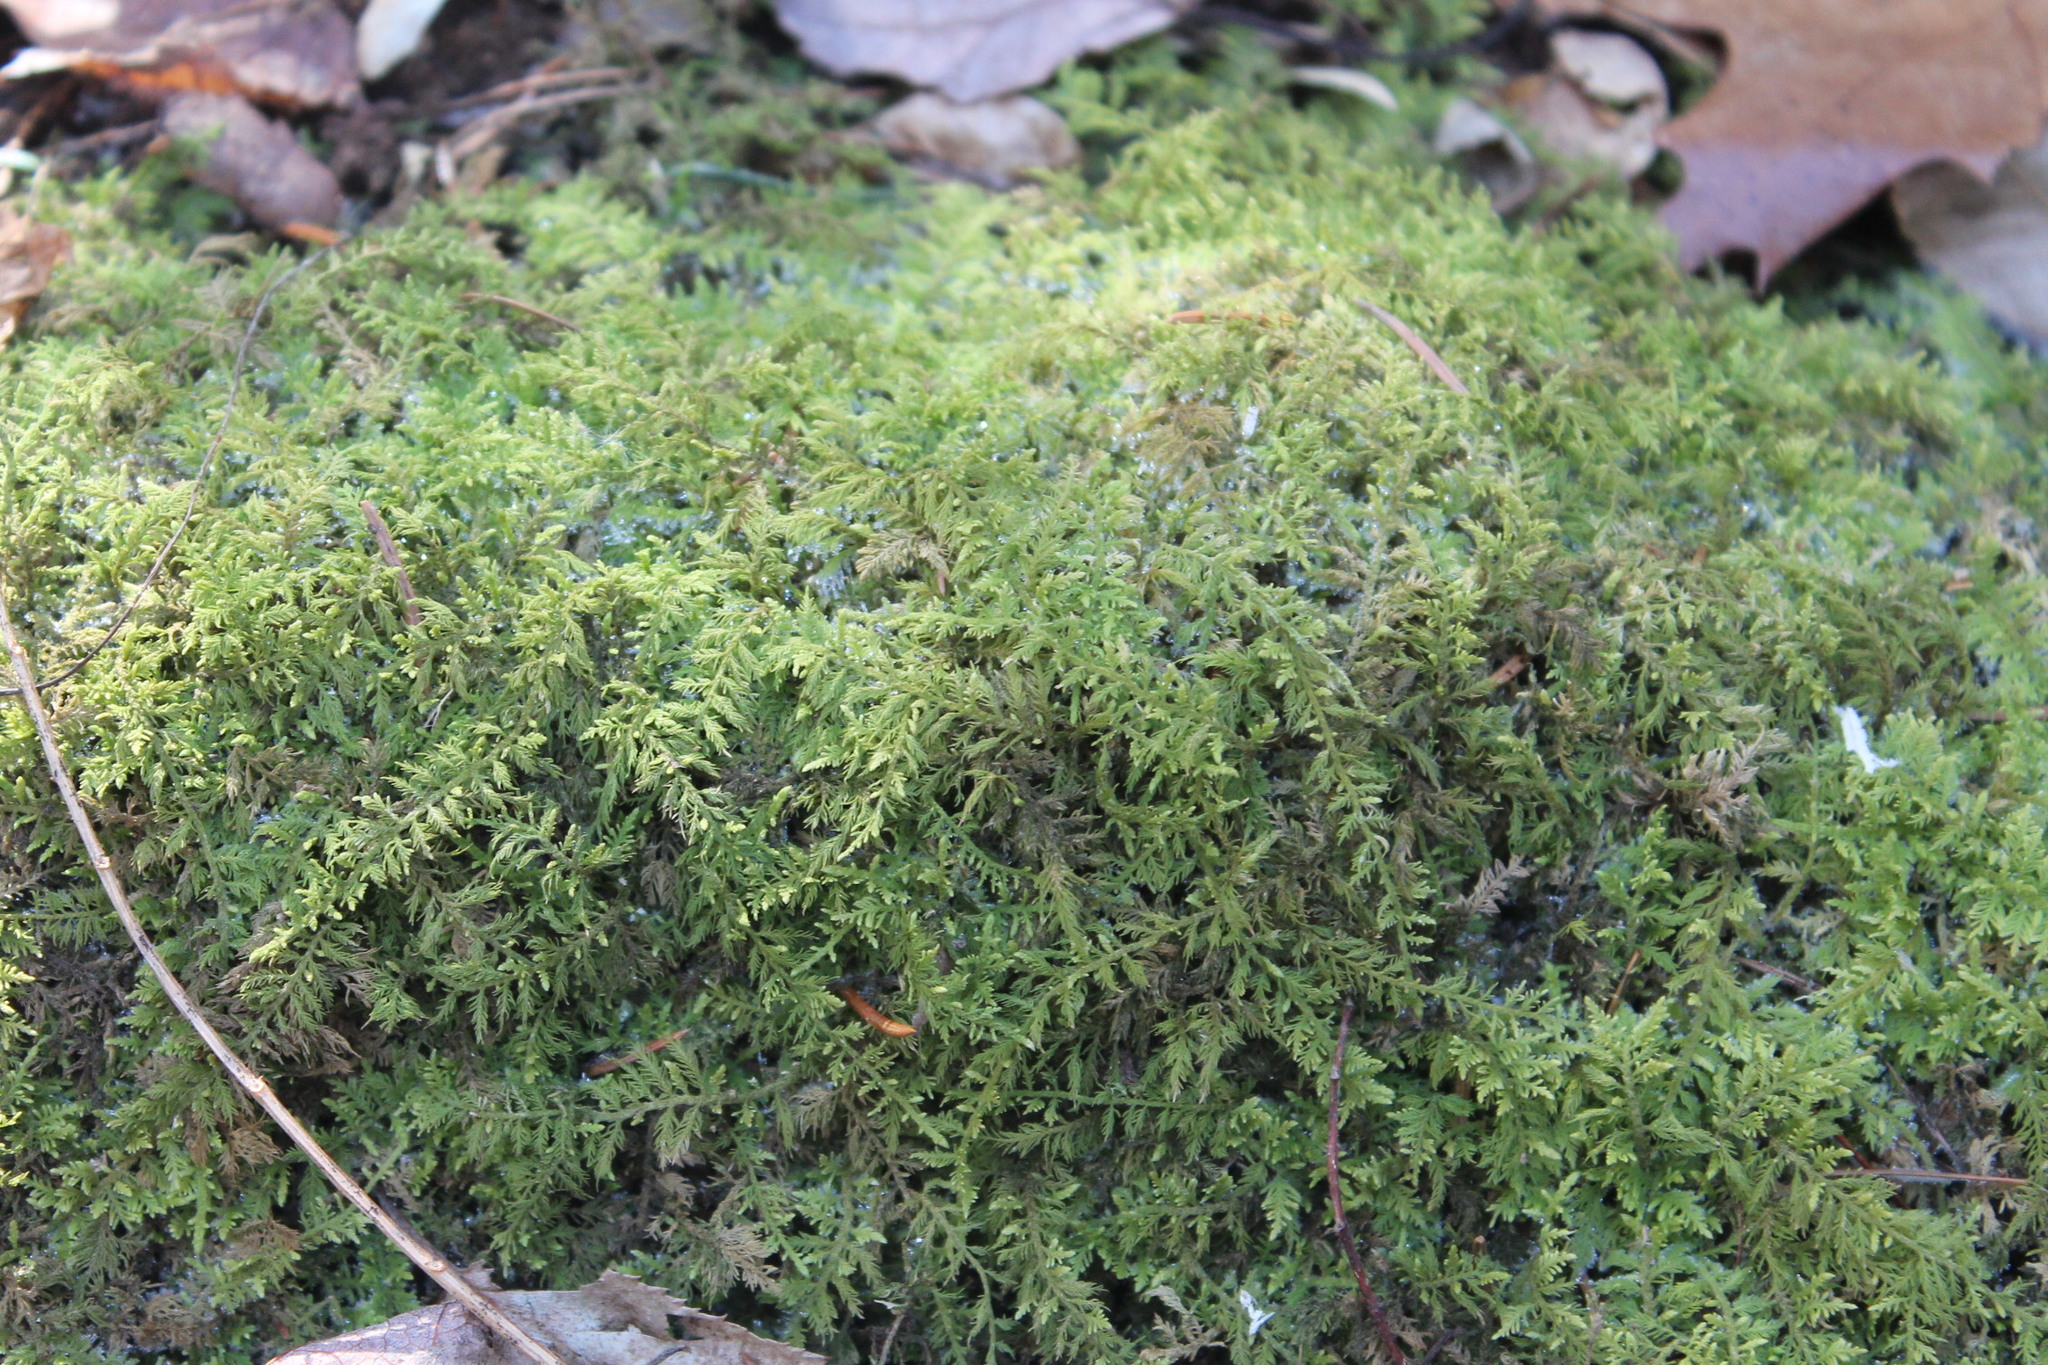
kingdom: Plantae
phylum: Bryophyta
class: Bryopsida
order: Hypnales
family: Thuidiaceae
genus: Thuidium
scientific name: Thuidium delicatulum
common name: Delicate fern moss
